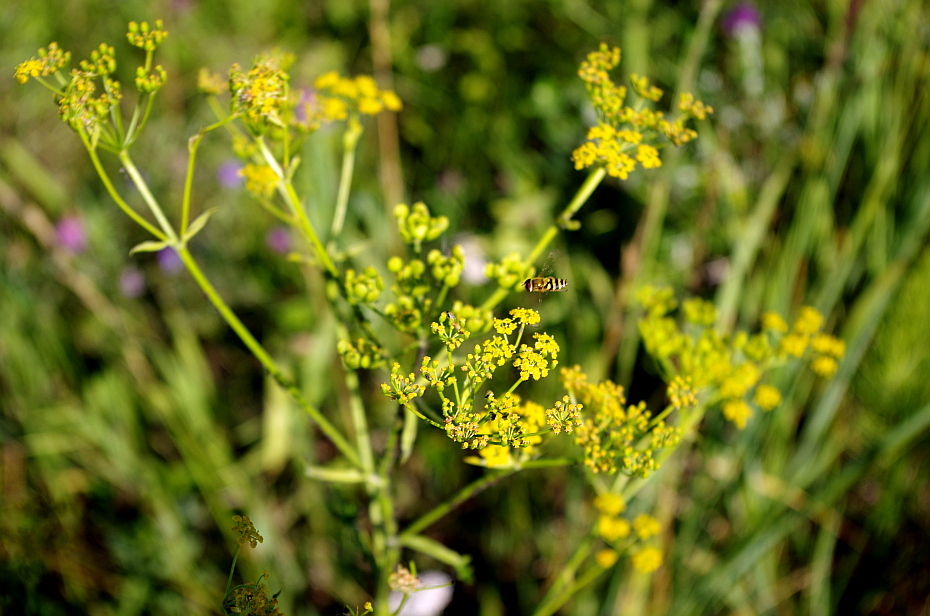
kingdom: Animalia
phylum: Arthropoda
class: Insecta
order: Diptera
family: Syrphidae
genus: Syrphus
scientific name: Syrphus
